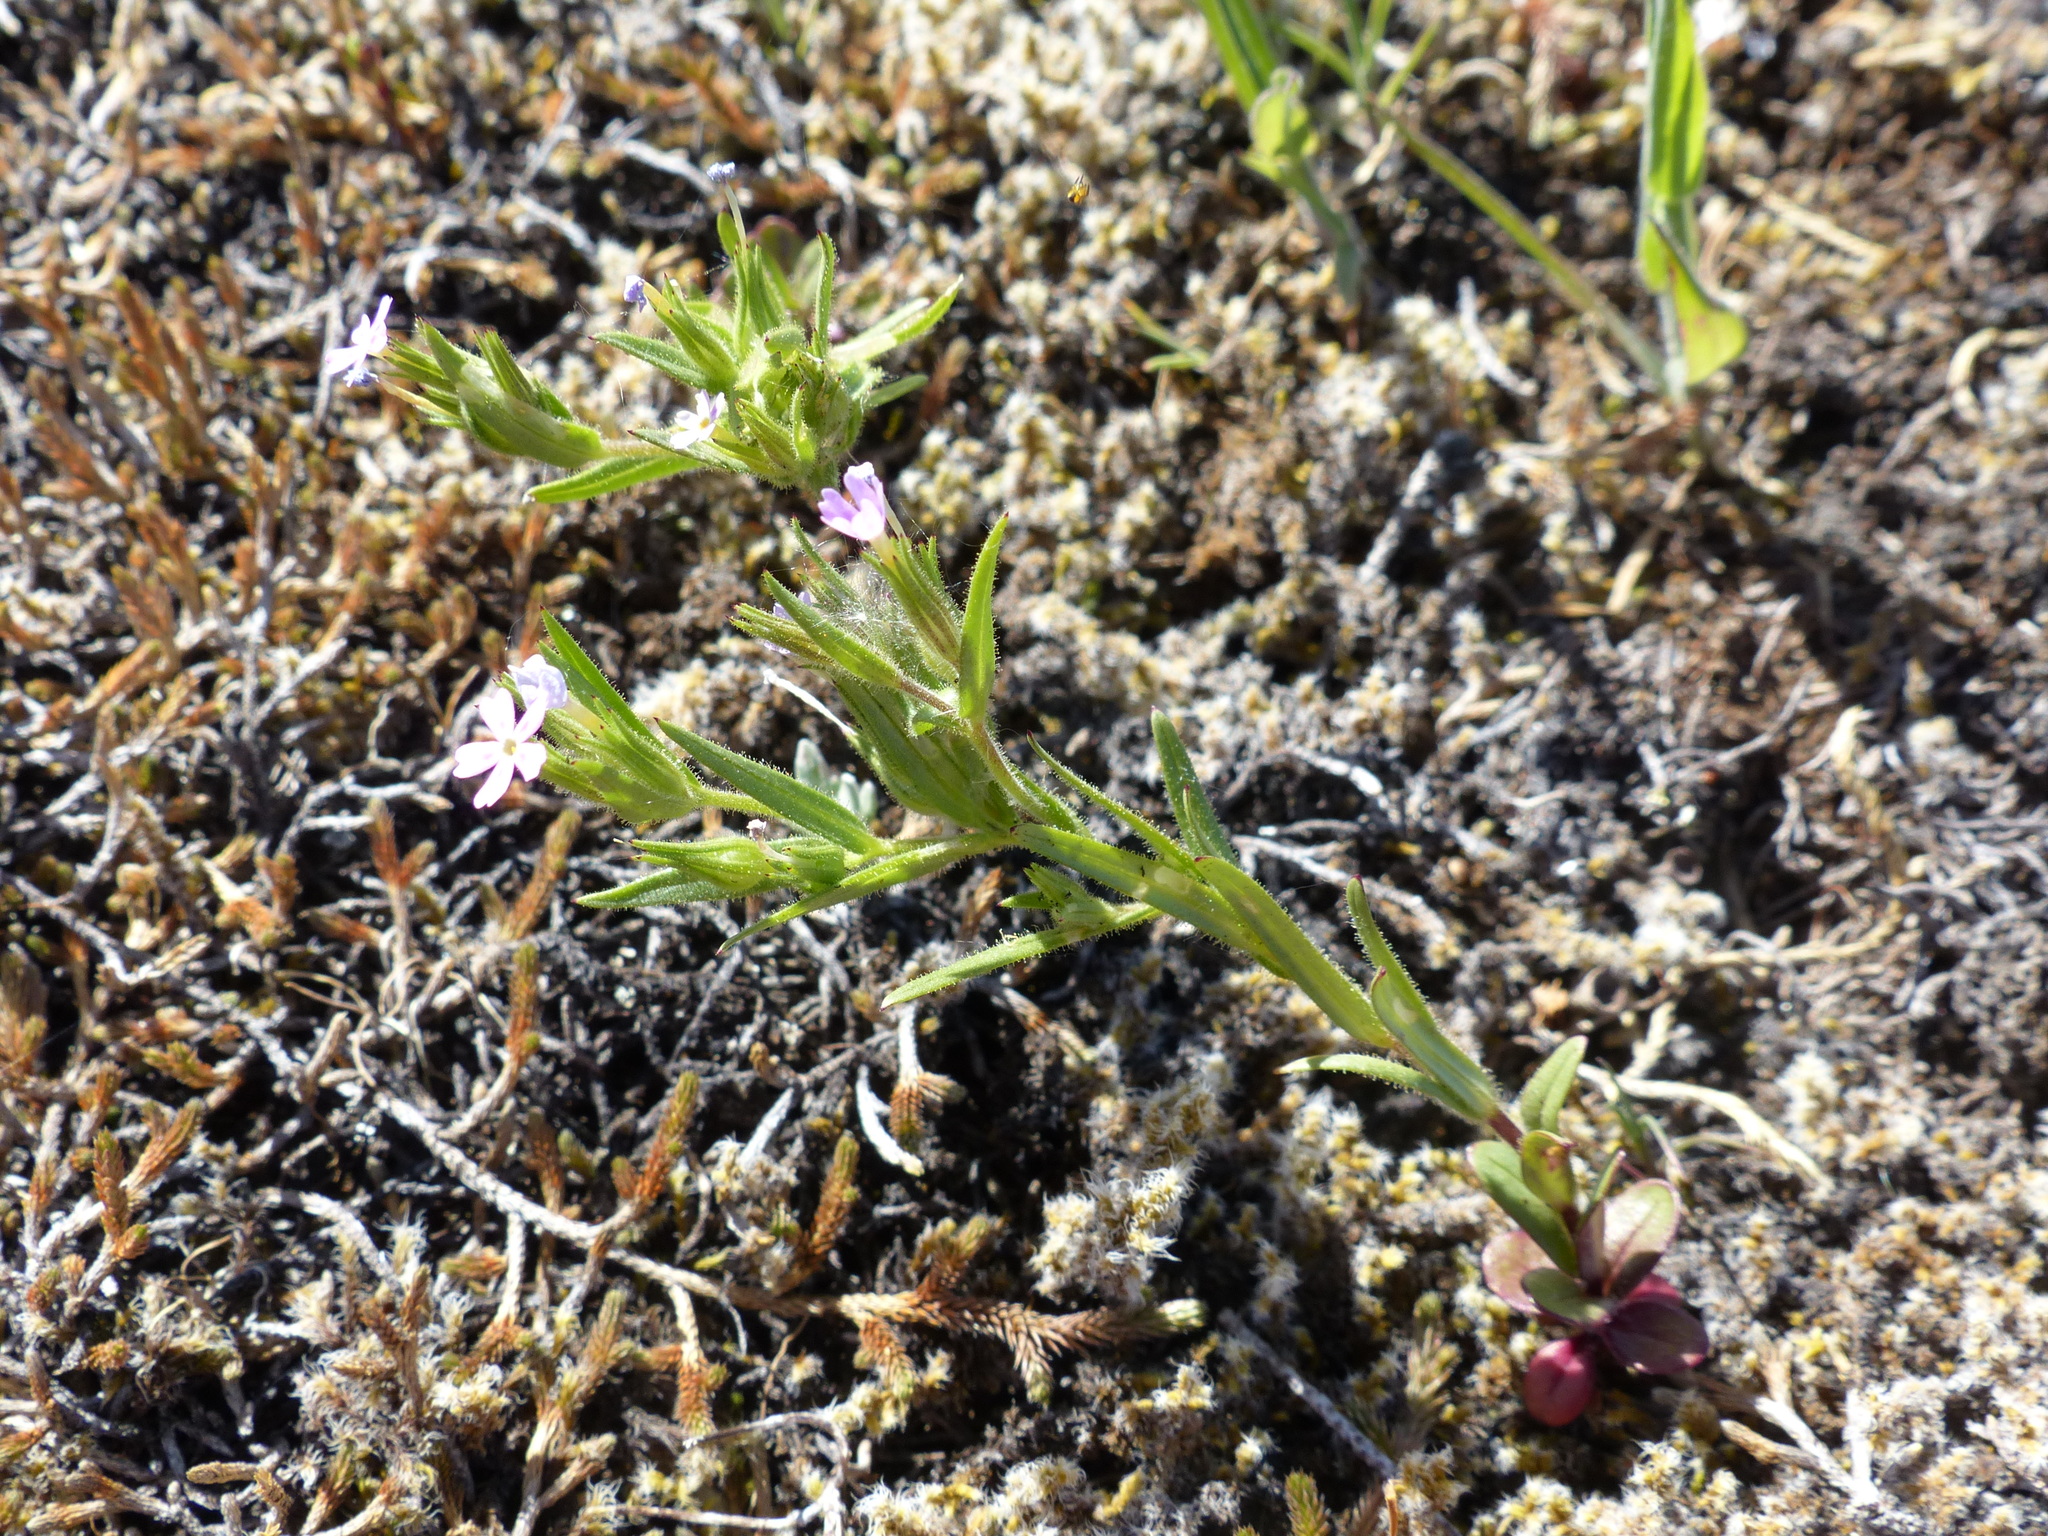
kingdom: Plantae
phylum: Tracheophyta
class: Magnoliopsida
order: Ericales
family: Polemoniaceae
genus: Phlox
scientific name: Phlox gracilis
